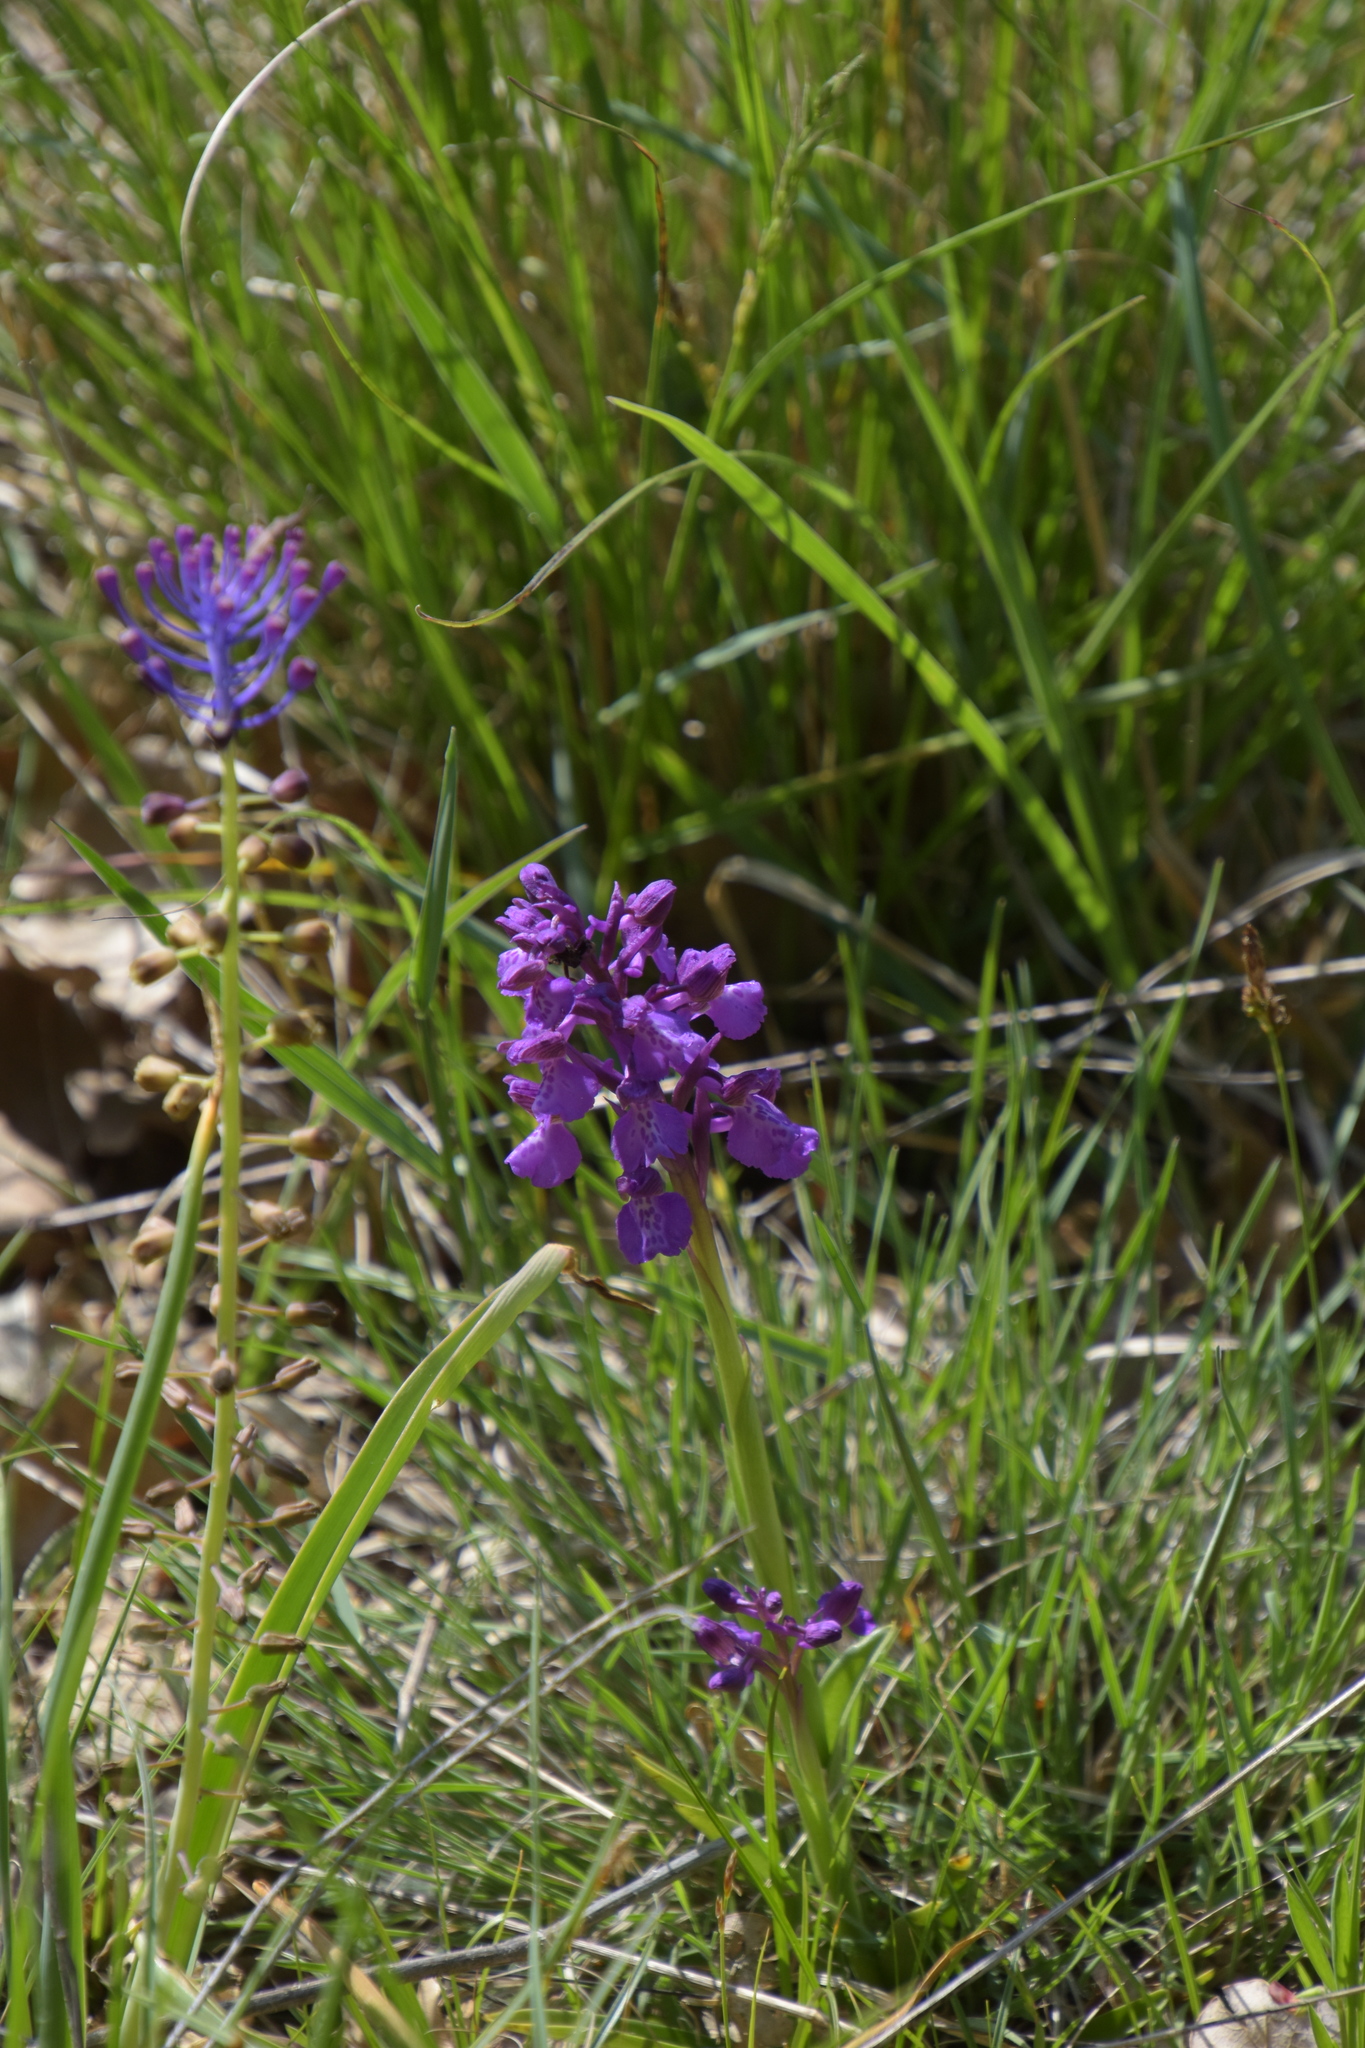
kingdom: Plantae
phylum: Tracheophyta
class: Liliopsida
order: Asparagales
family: Orchidaceae
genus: Anacamptis
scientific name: Anacamptis morio
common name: Green-winged orchid
